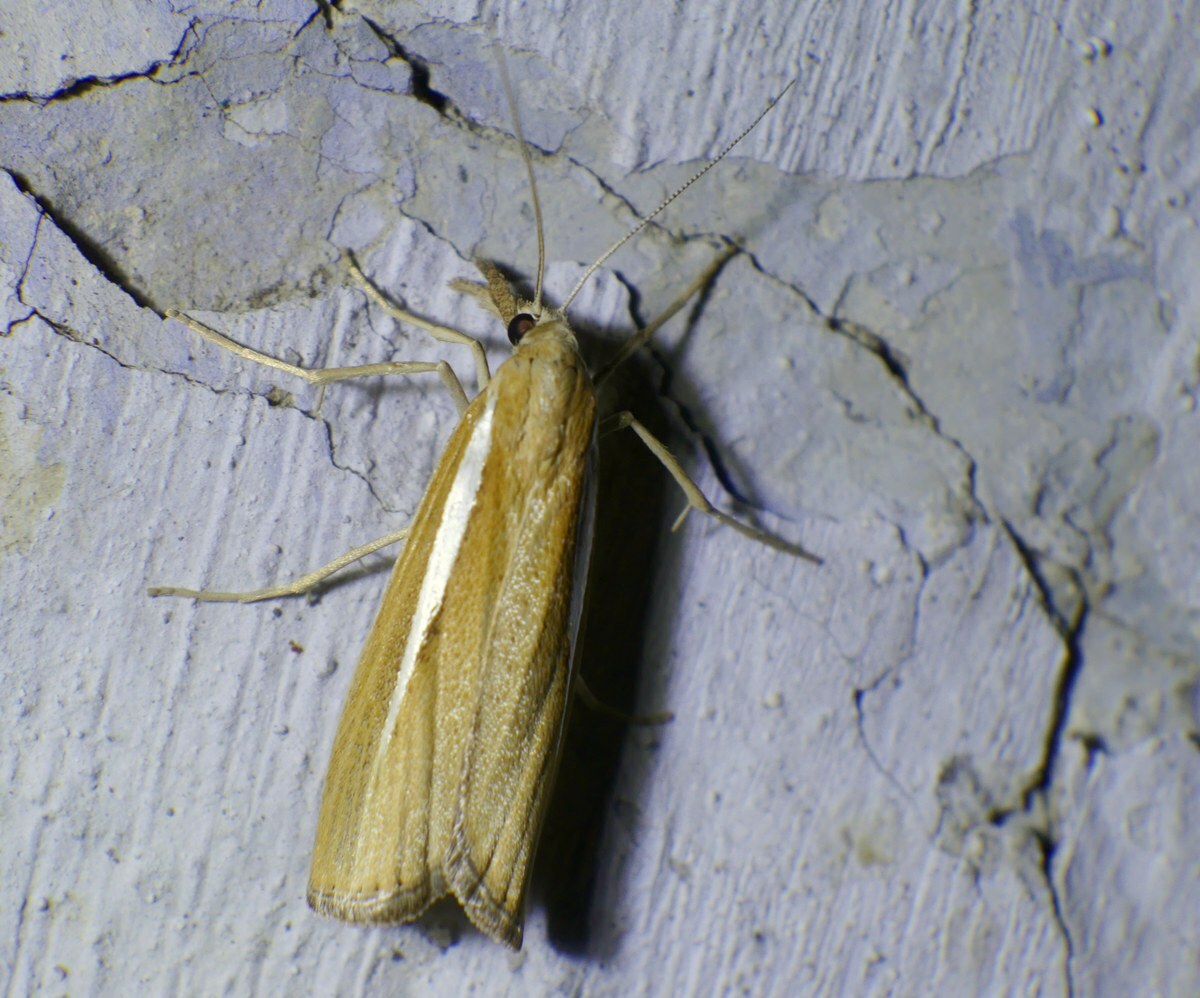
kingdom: Animalia
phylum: Arthropoda
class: Insecta
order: Lepidoptera
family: Crambidae
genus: Agriphila
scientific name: Agriphila tristellus
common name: Common grass-veneer
